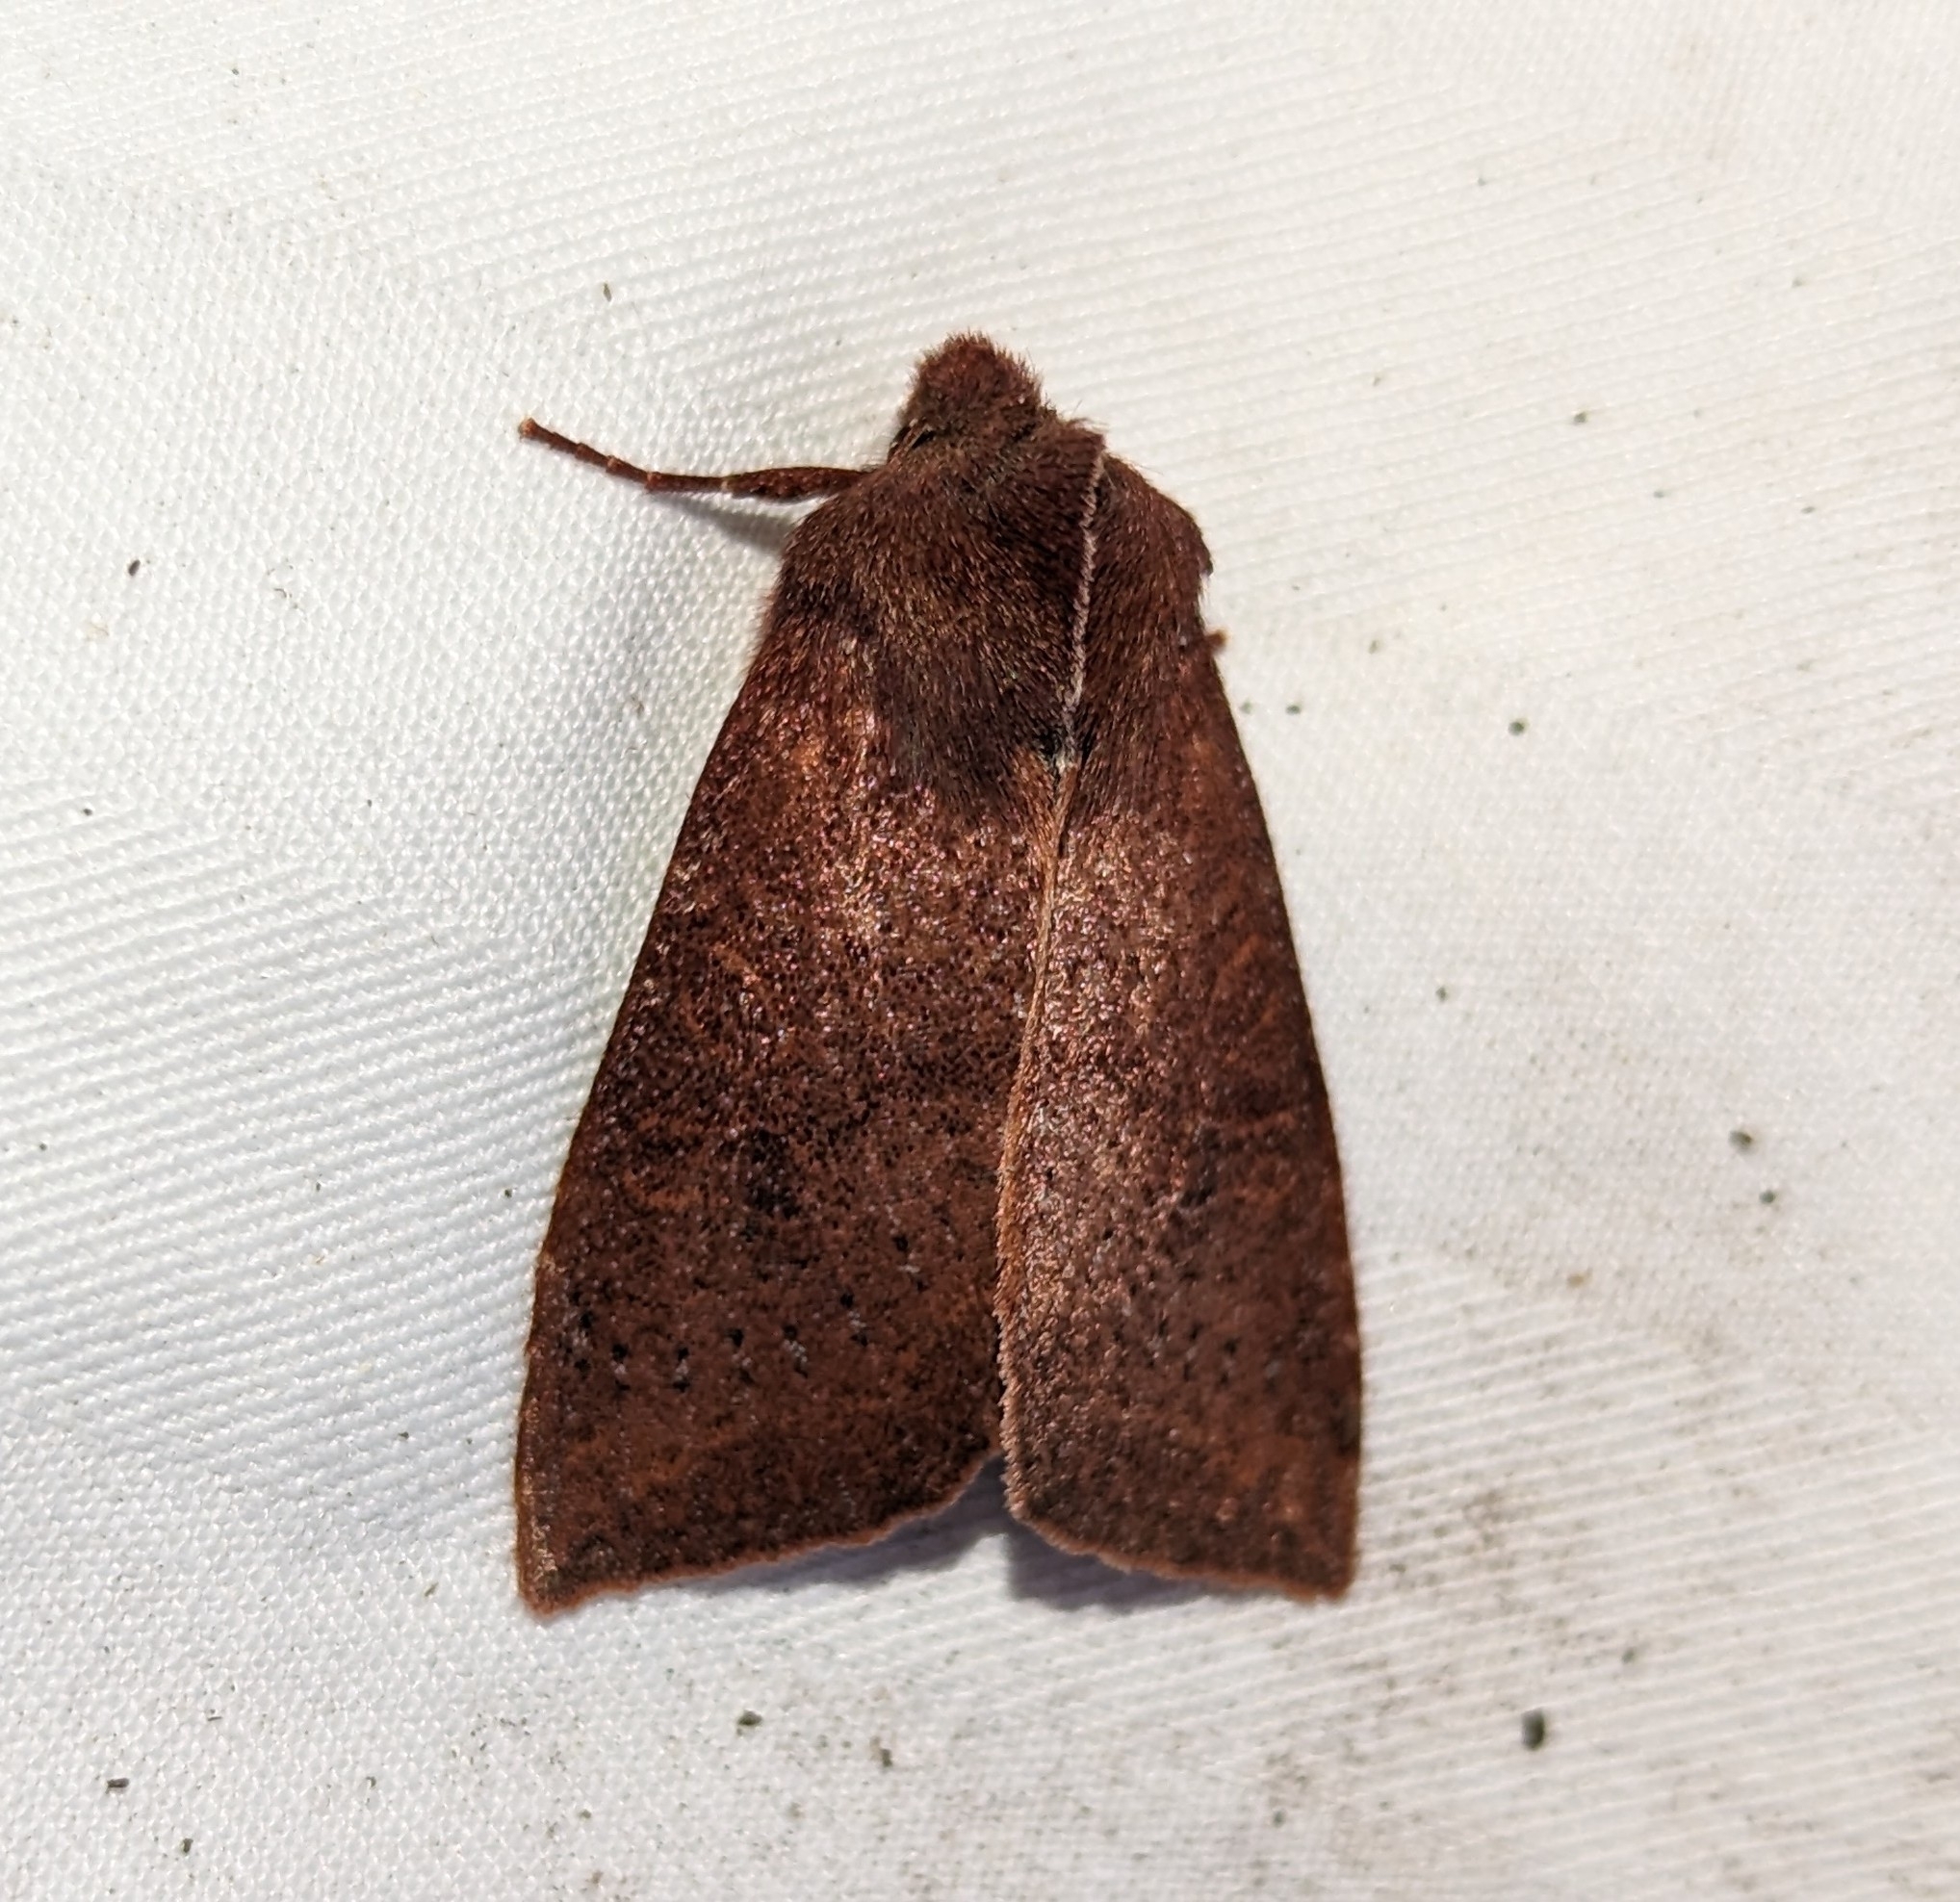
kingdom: Animalia
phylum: Arthropoda
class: Insecta
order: Lepidoptera
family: Noctuidae
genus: Orthosia
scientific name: Orthosia transparens
